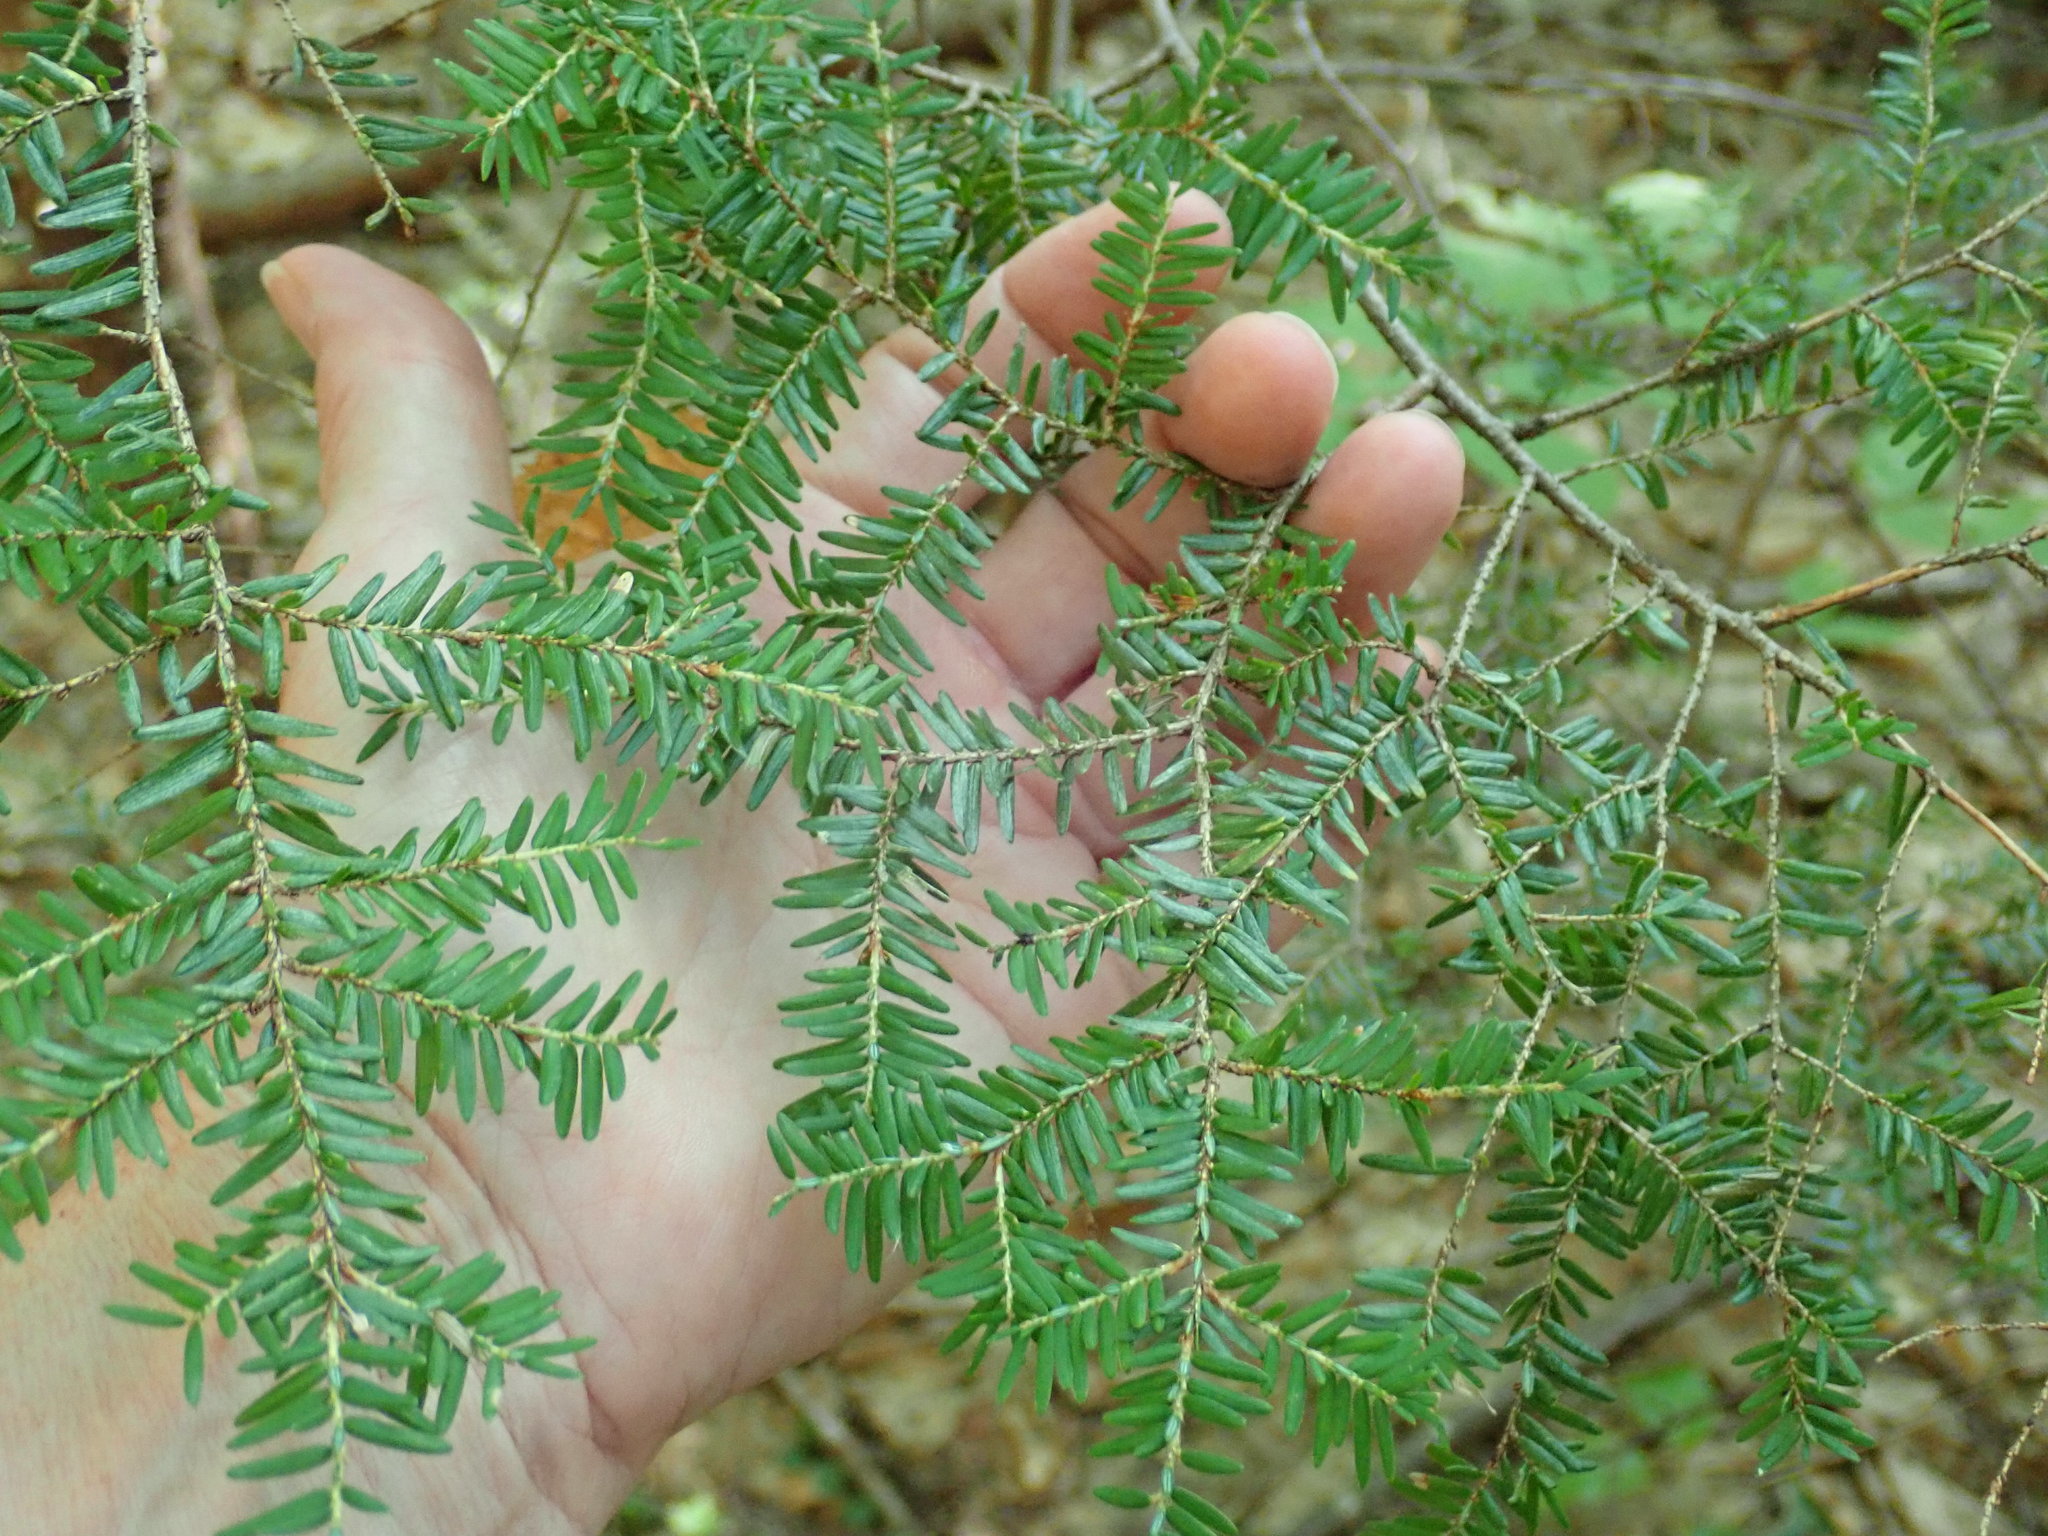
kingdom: Plantae
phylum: Tracheophyta
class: Pinopsida
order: Pinales
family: Pinaceae
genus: Tsuga
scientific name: Tsuga canadensis
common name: Eastern hemlock
